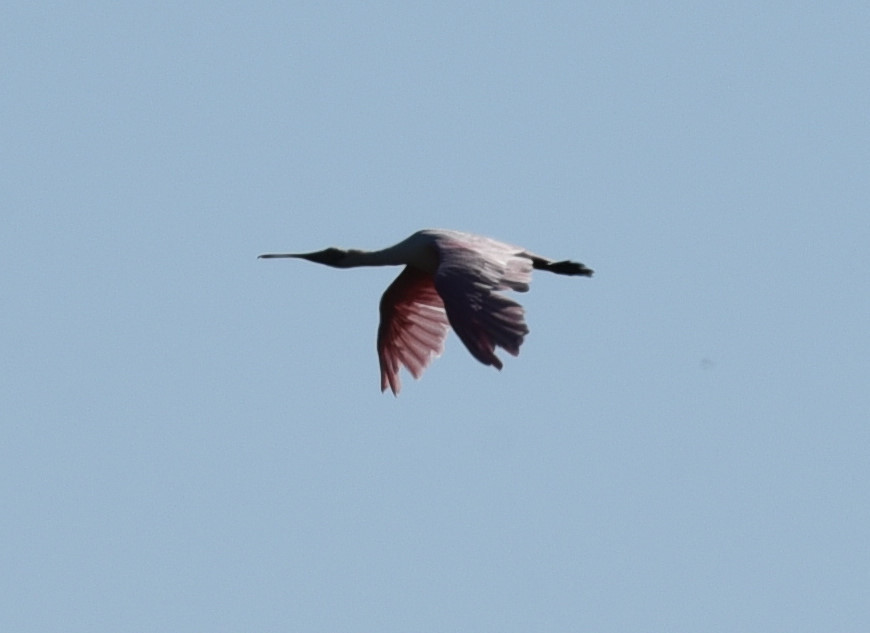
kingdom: Animalia
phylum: Chordata
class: Aves
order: Pelecaniformes
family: Threskiornithidae
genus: Platalea
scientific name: Platalea ajaja
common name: Roseate spoonbill
